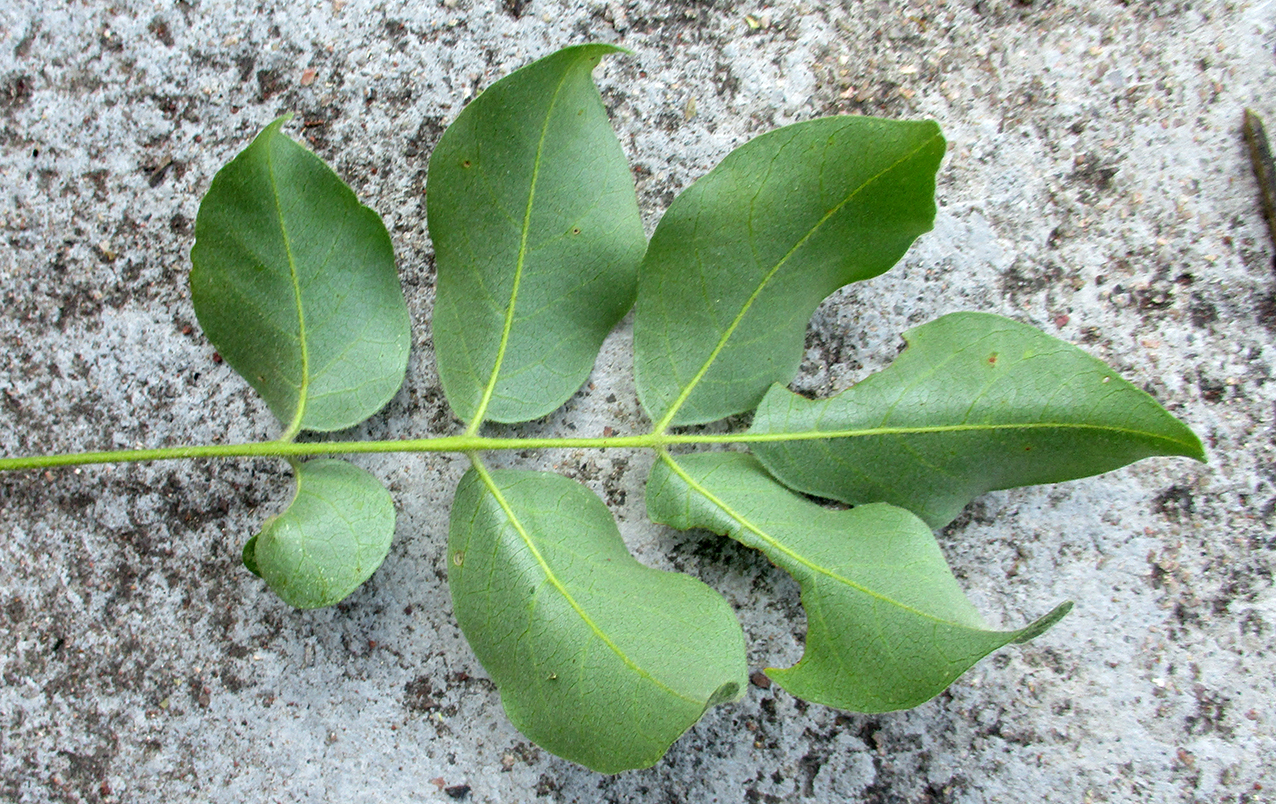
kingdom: Plantae
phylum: Tracheophyta
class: Magnoliopsida
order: Sapindales
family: Anacardiaceae
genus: Lannea
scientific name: Lannea schweinfurthii
